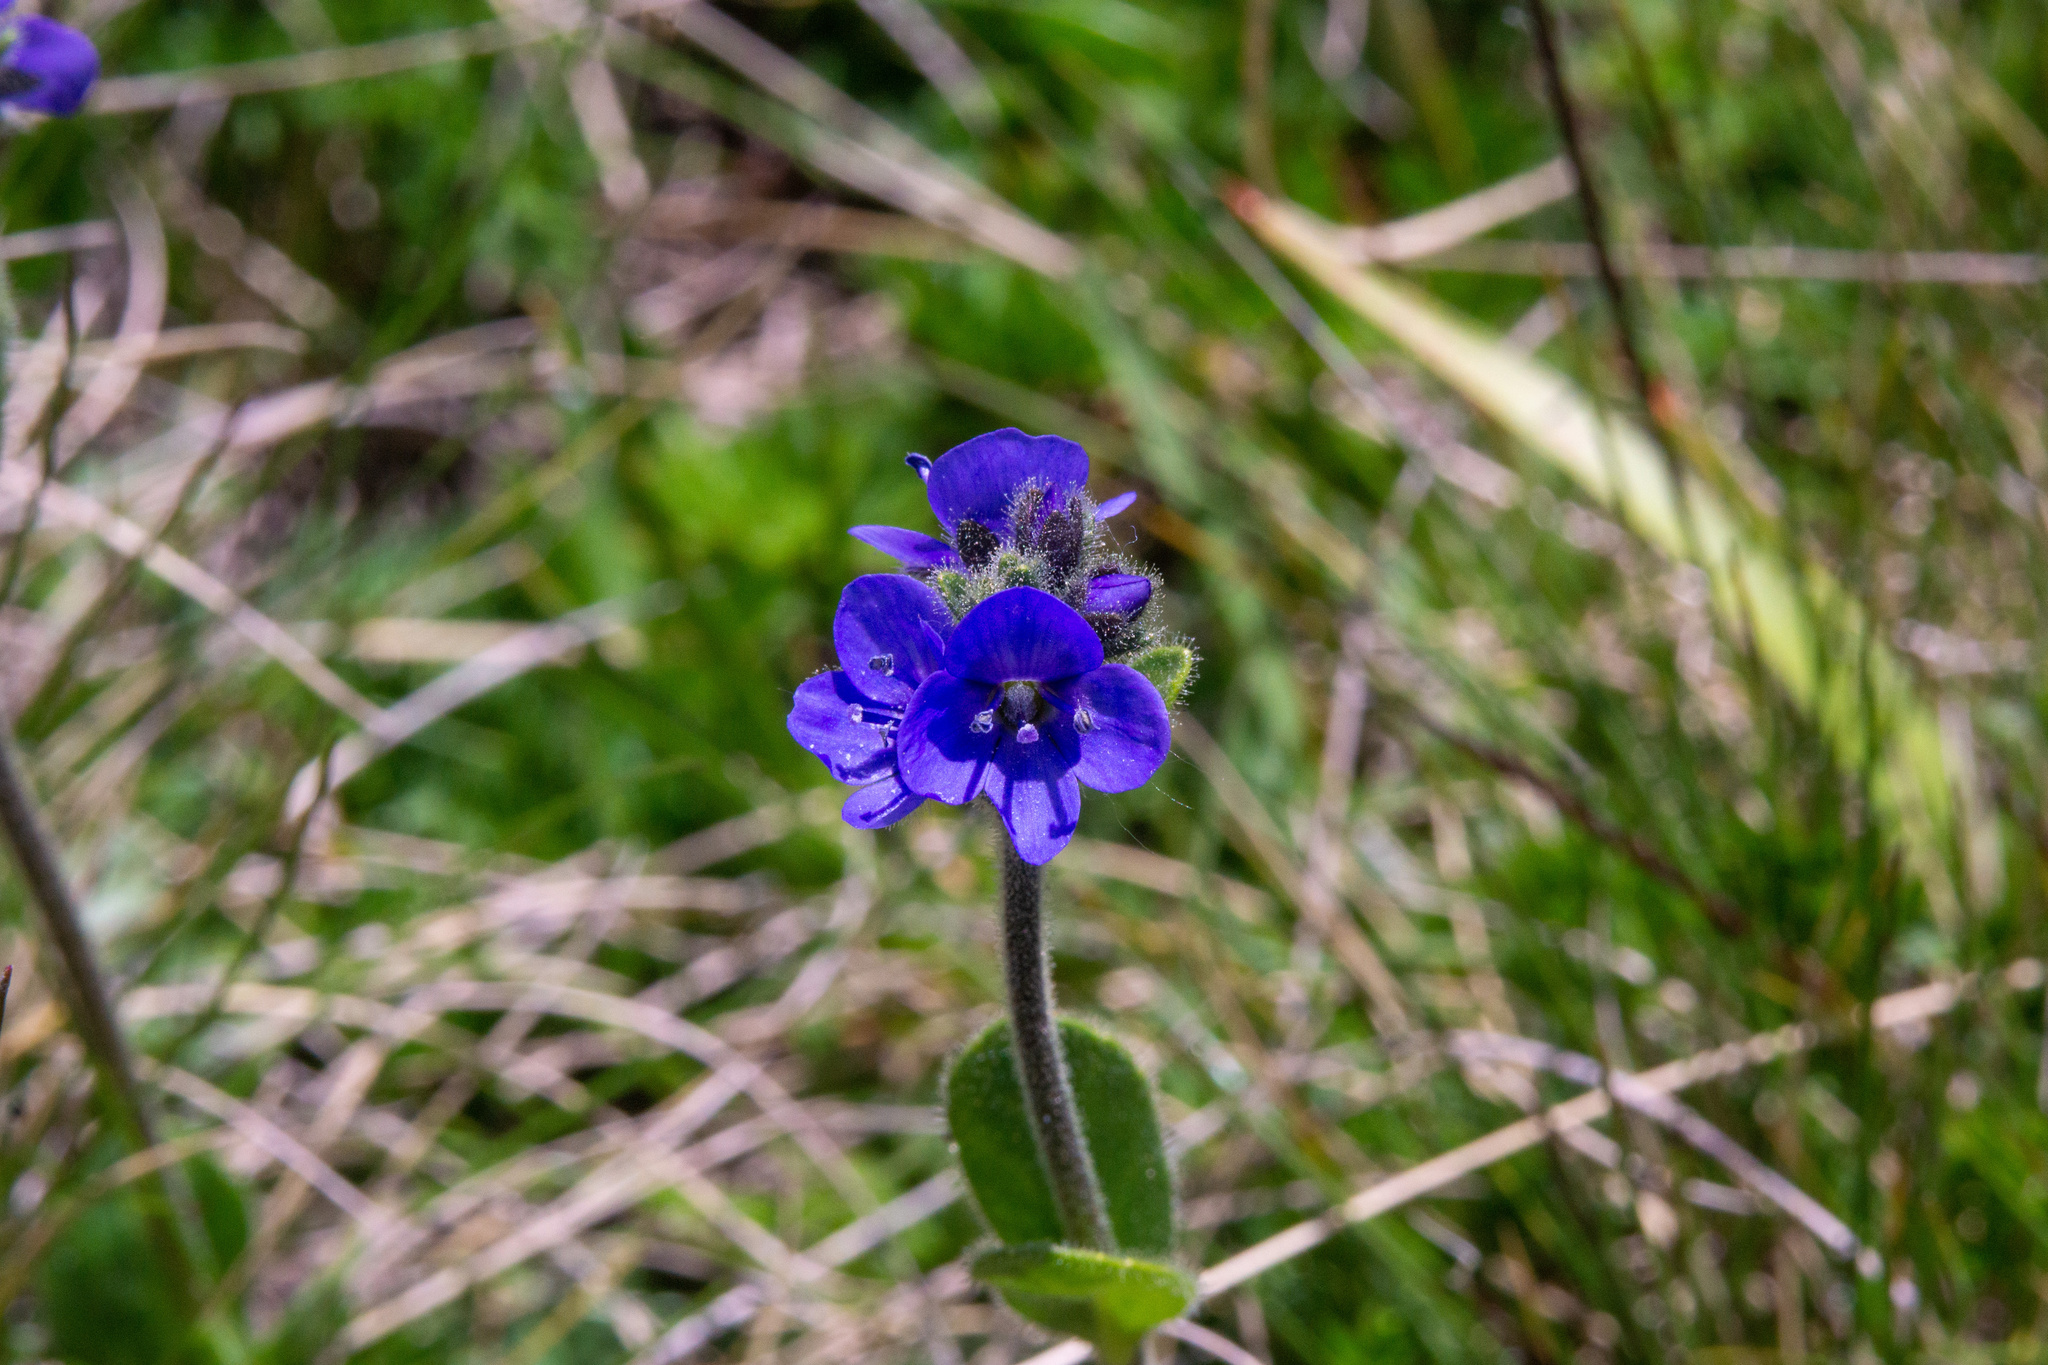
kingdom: Plantae
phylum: Tracheophyta
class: Magnoliopsida
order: Lamiales
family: Plantaginaceae
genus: Veronica
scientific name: Veronica bellidioides
